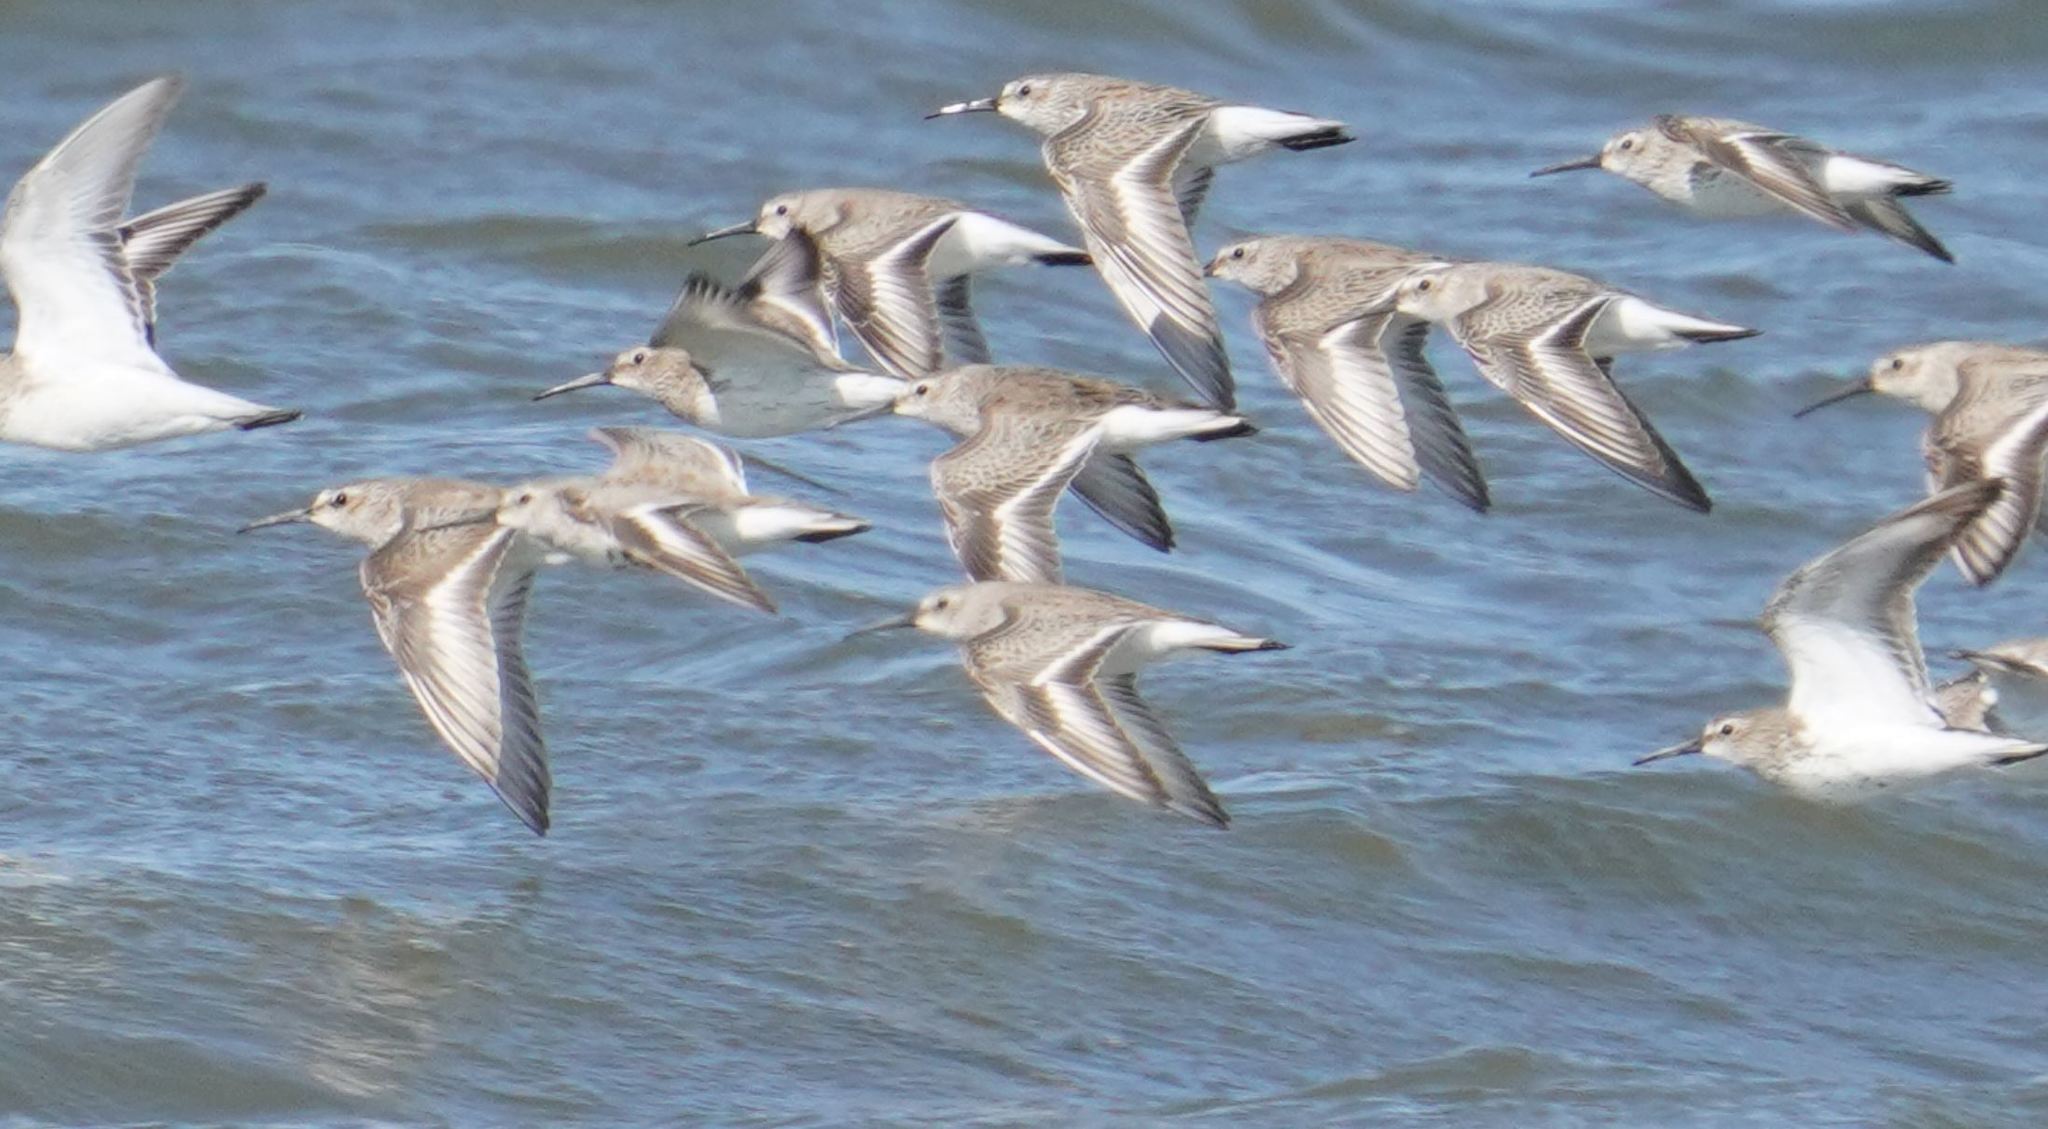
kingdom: Animalia
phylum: Chordata
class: Aves
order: Charadriiformes
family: Scolopacidae
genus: Calidris
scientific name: Calidris alpina
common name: Dunlin
